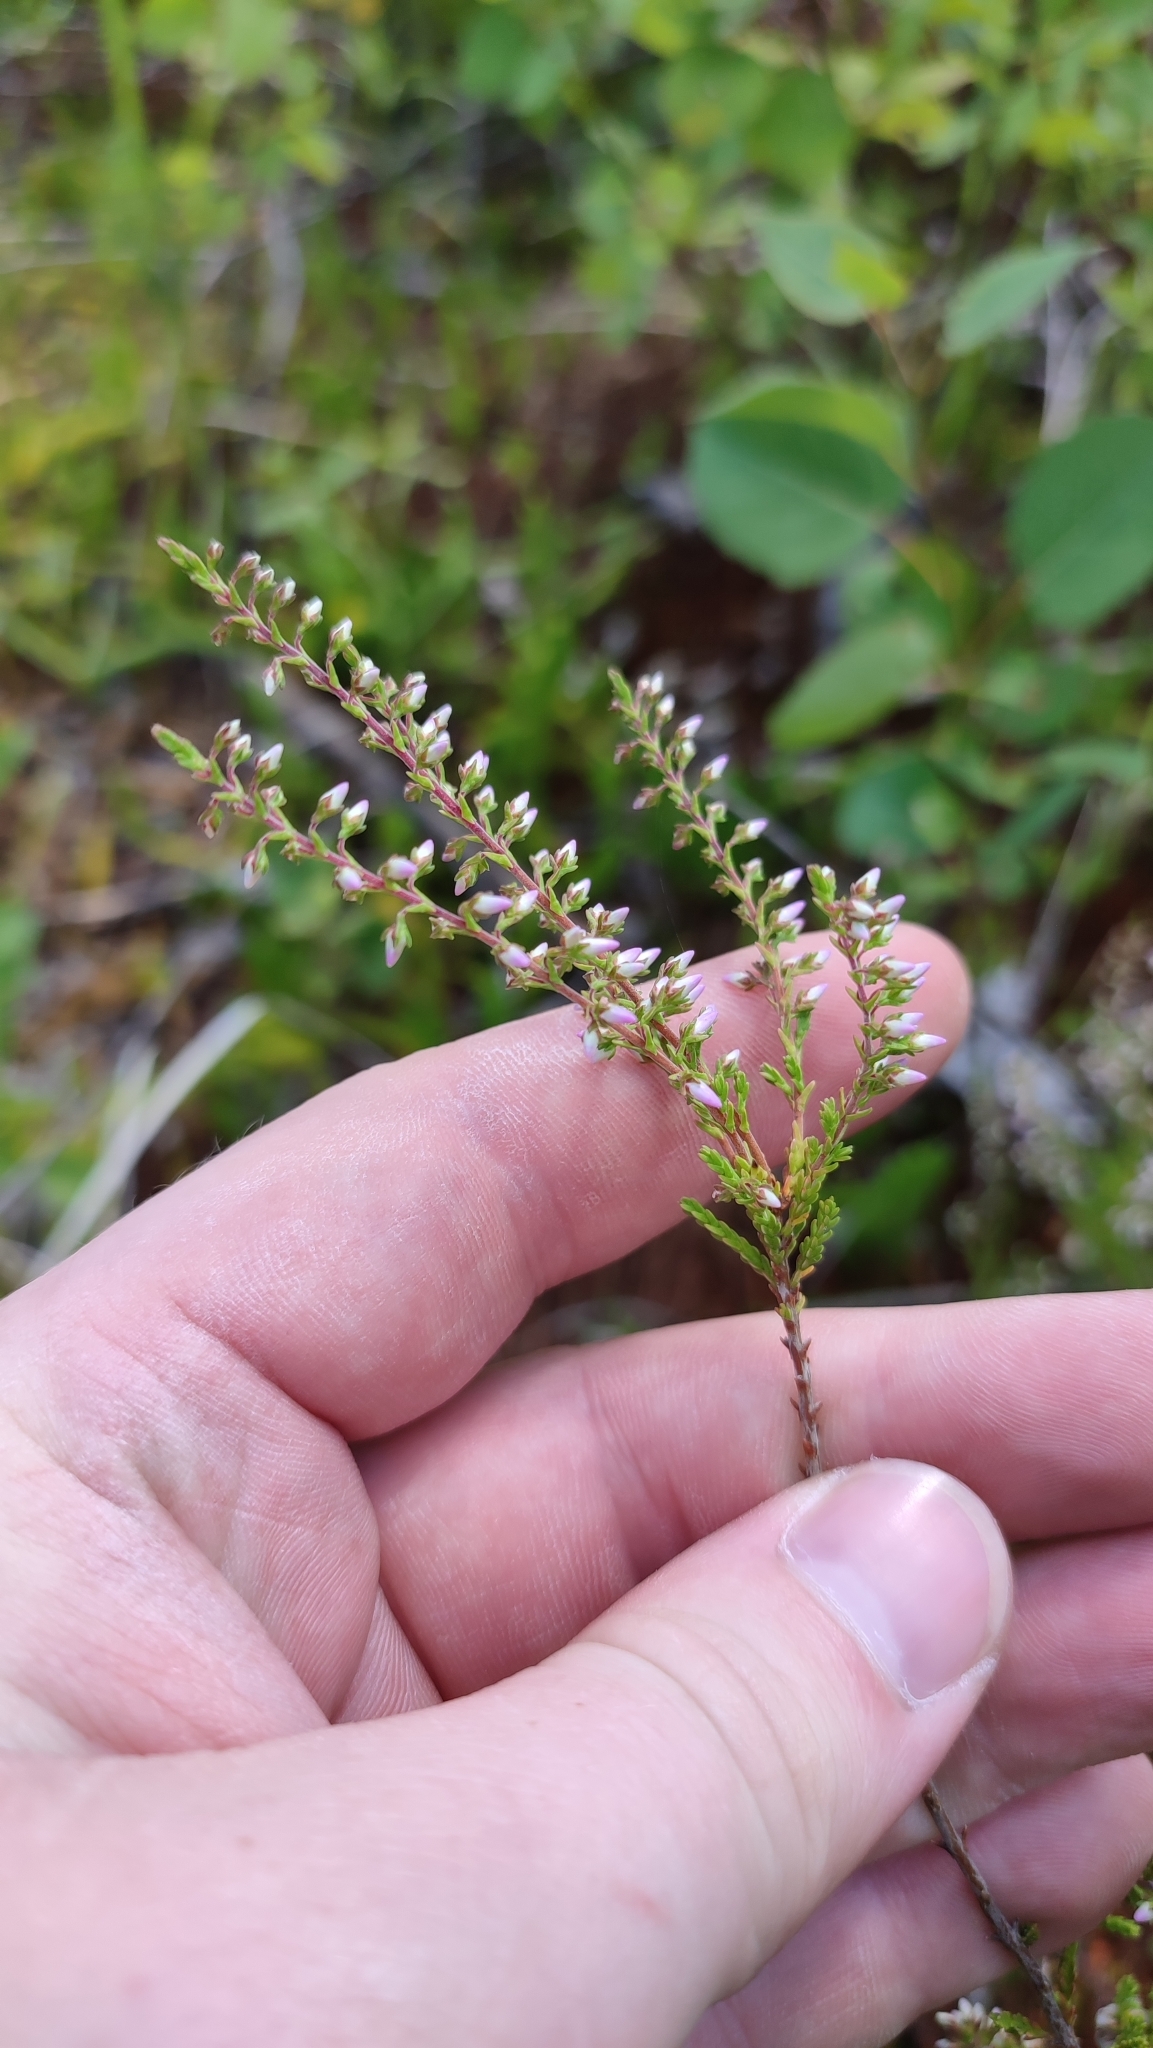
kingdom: Plantae
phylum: Tracheophyta
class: Magnoliopsida
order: Ericales
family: Ericaceae
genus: Calluna
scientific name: Calluna vulgaris
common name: Heather
